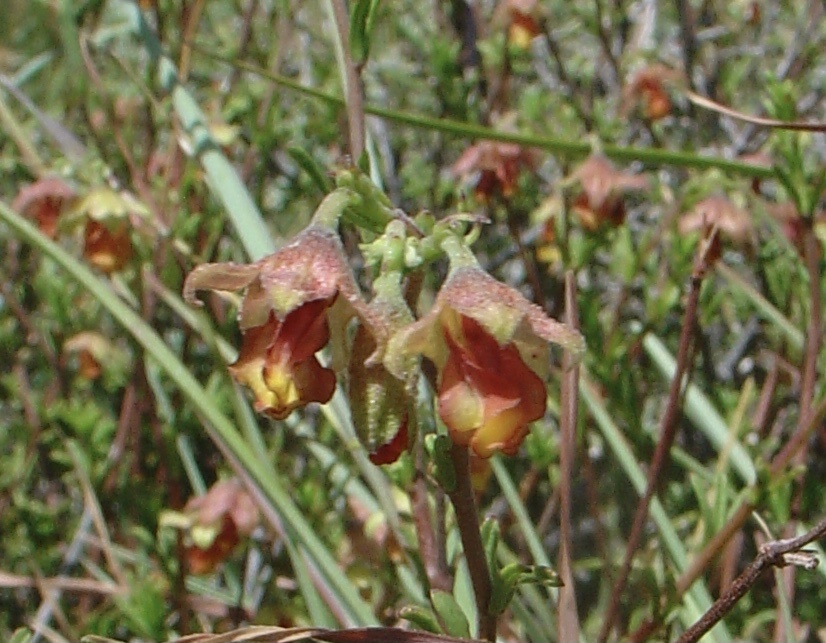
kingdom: Plantae
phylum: Tracheophyta
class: Magnoliopsida
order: Malvales
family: Malvaceae
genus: Hermannia
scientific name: Hermannia filifolia
